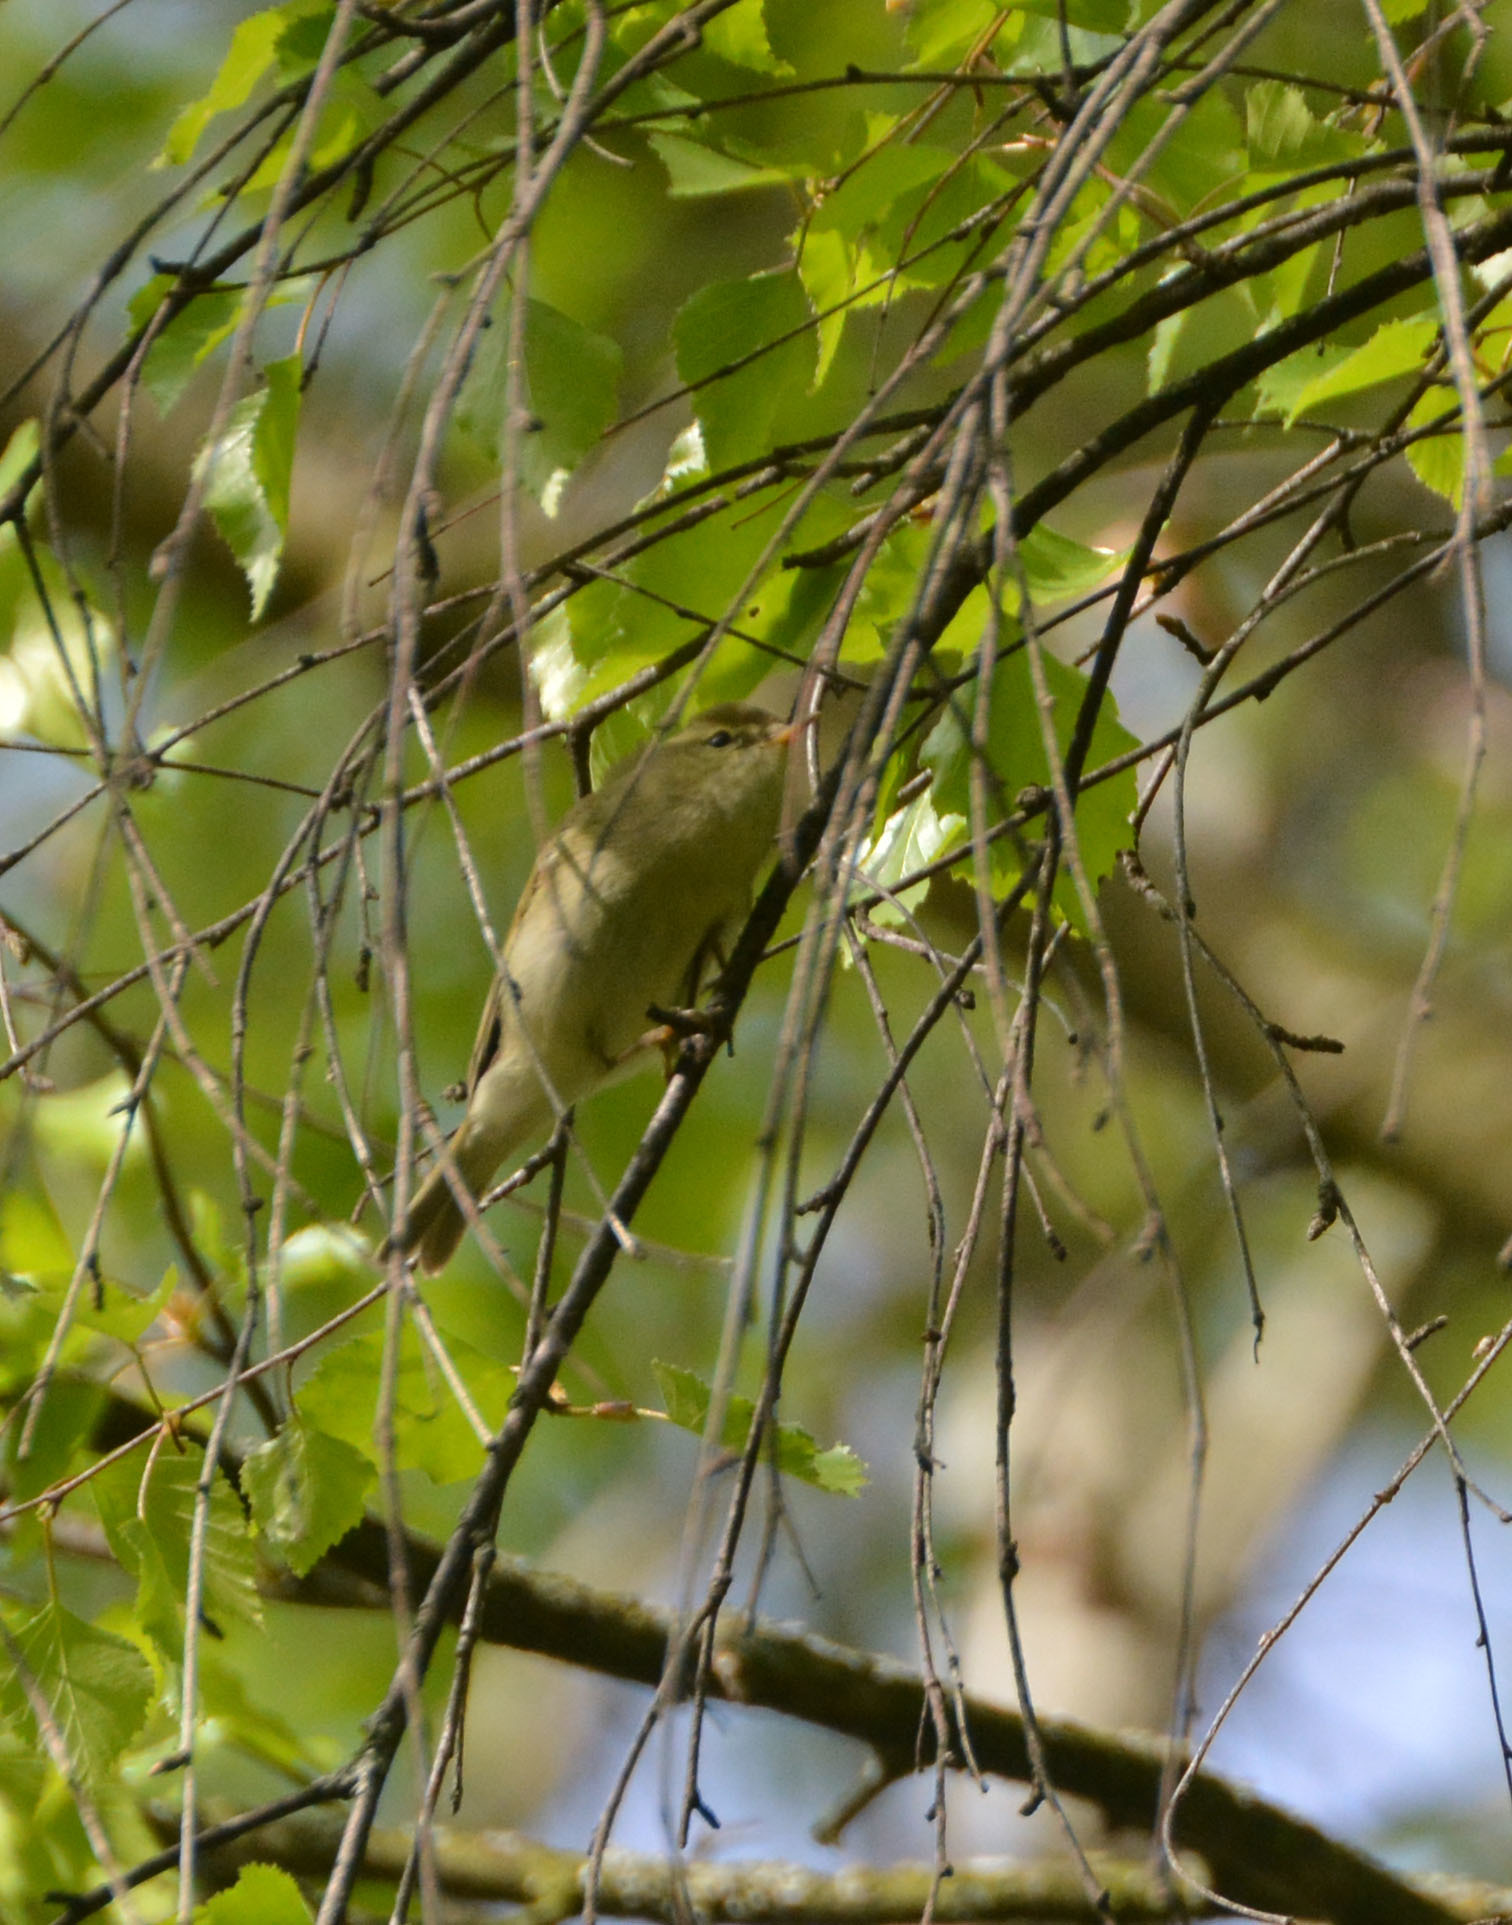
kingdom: Animalia
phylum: Chordata
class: Aves
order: Passeriformes
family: Phylloscopidae
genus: Phylloscopus
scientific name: Phylloscopus trochiloides
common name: Greenish warbler
